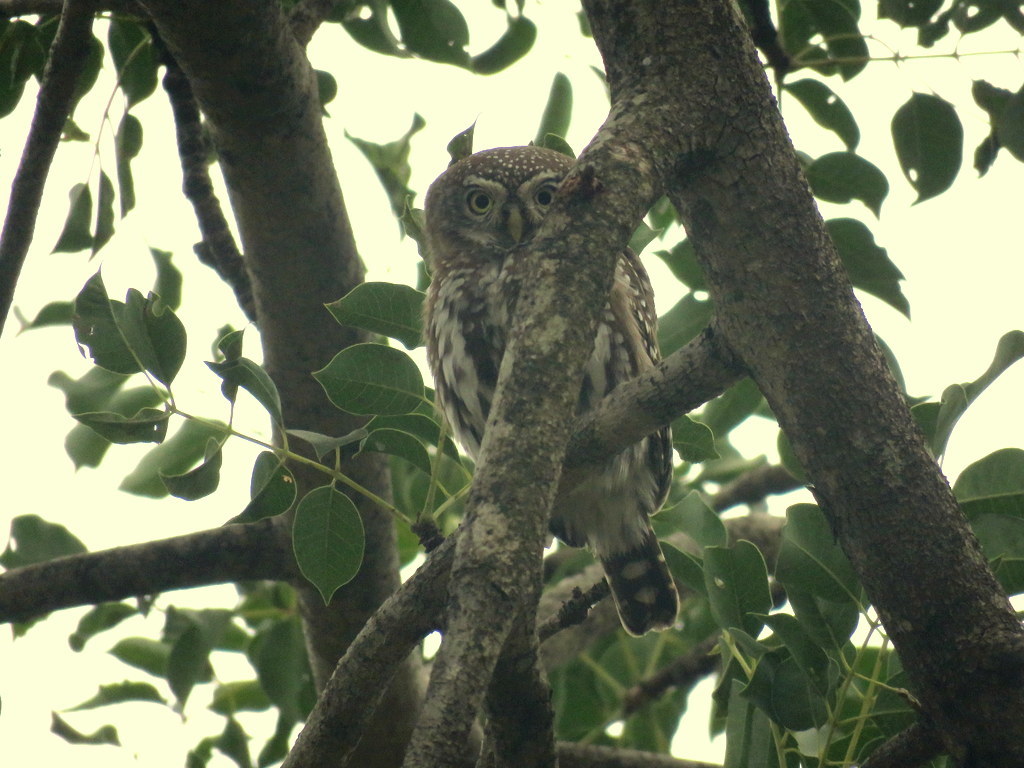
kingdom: Animalia
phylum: Chordata
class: Aves
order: Strigiformes
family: Strigidae
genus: Glaucidium
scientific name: Glaucidium perlatum
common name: Pearl-spotted owlet
